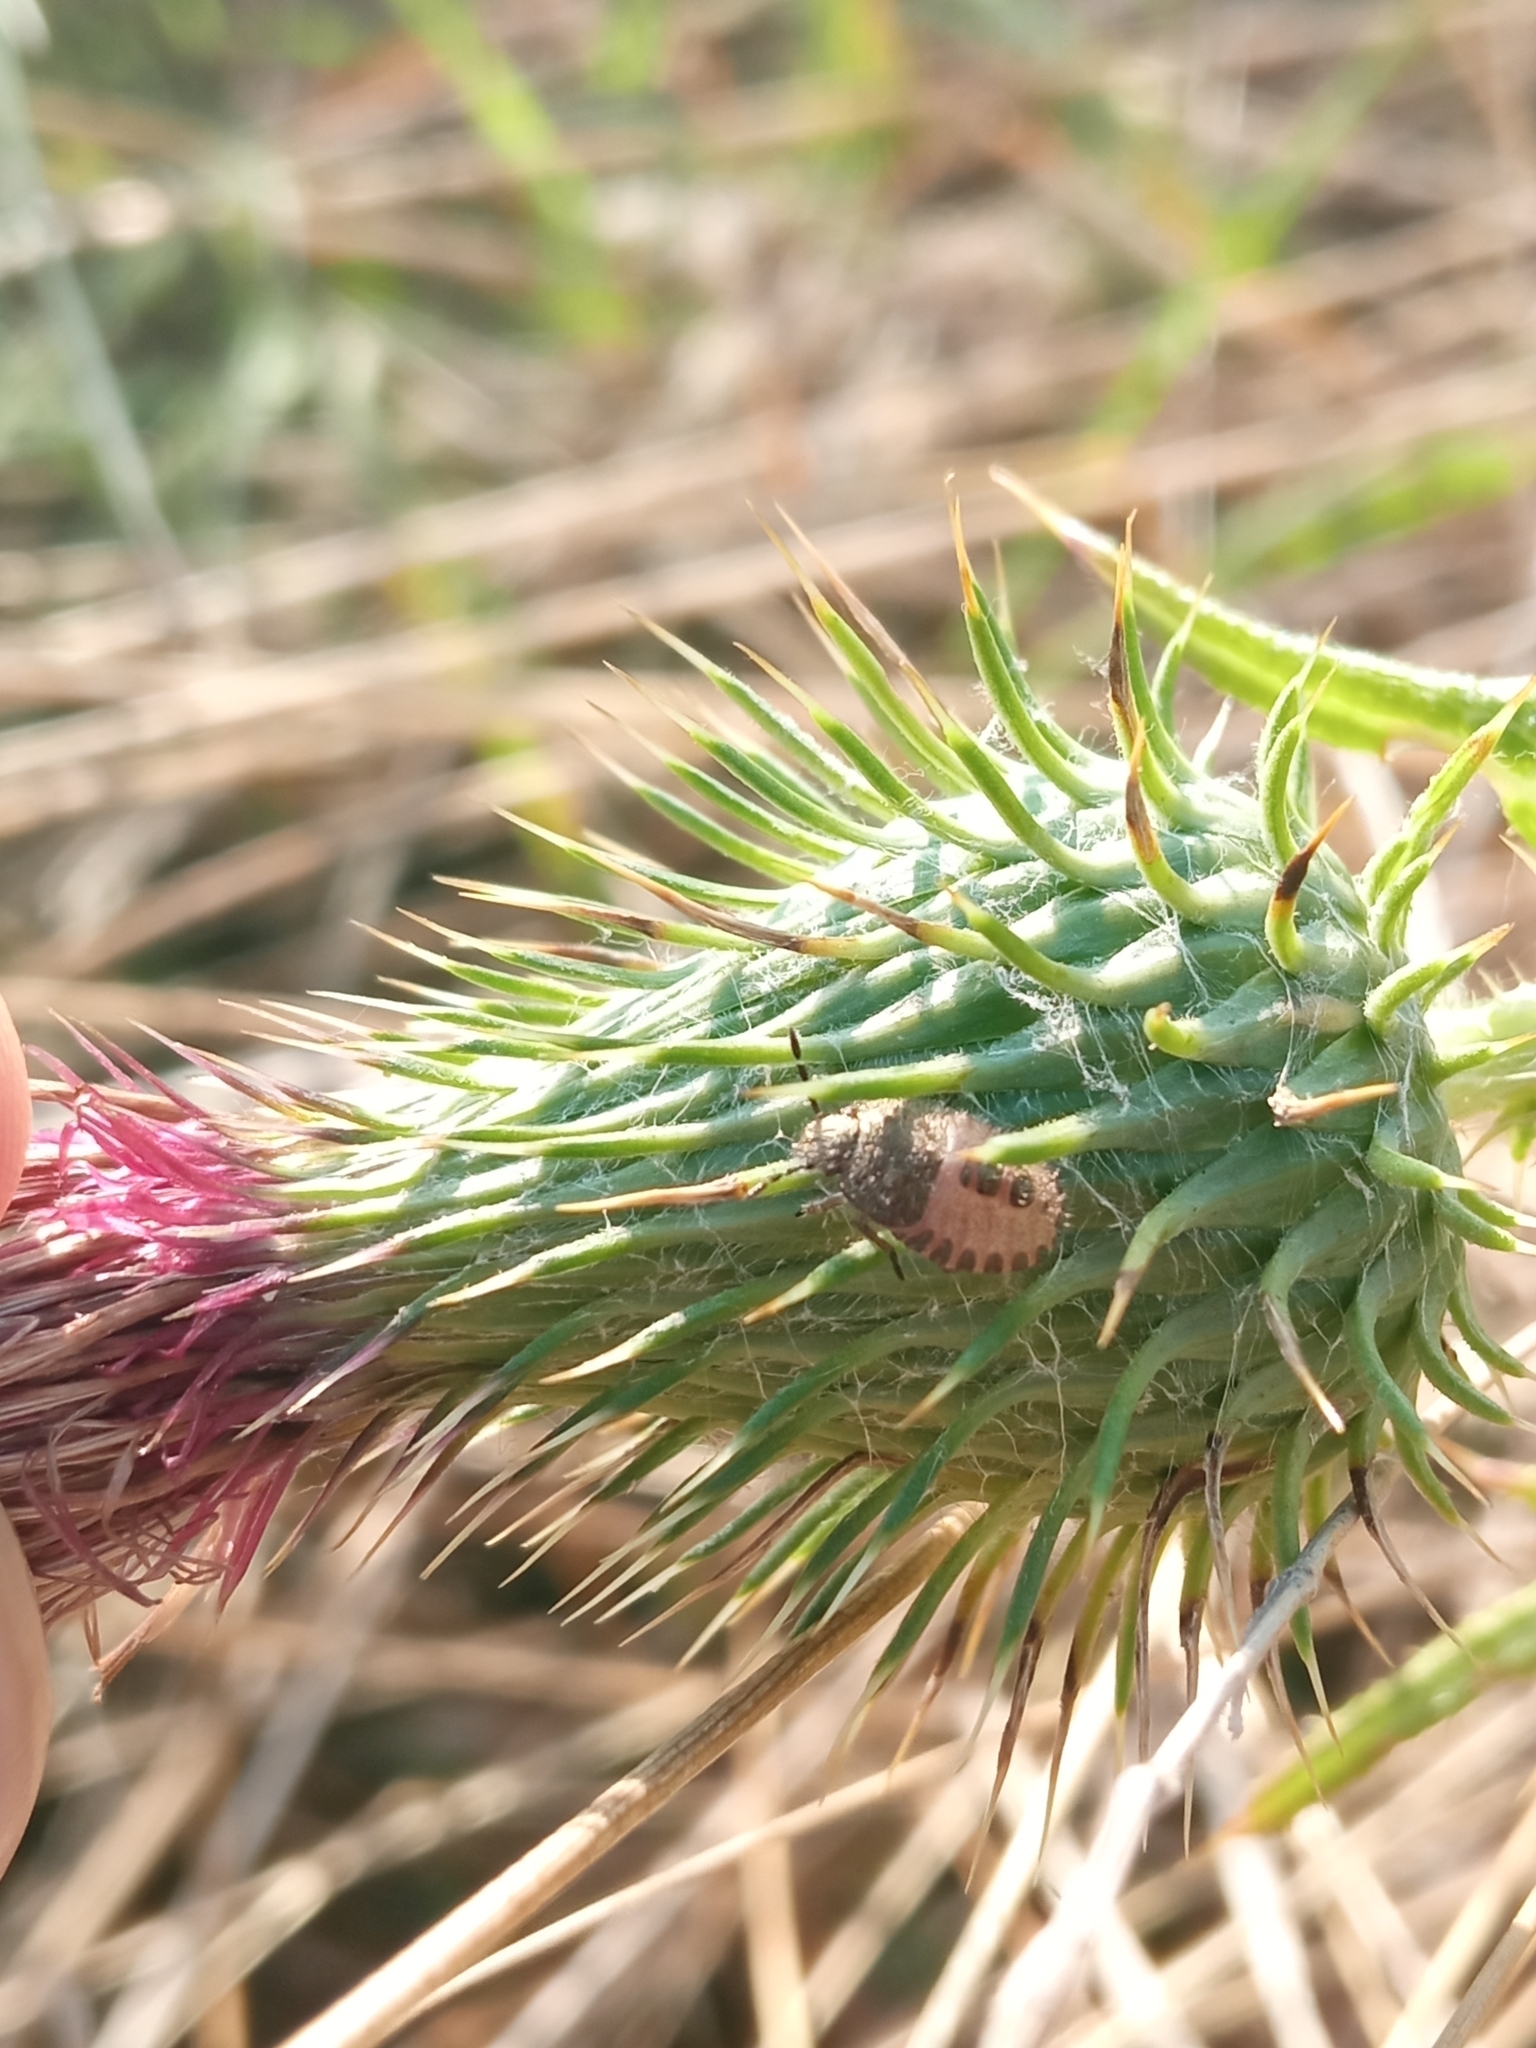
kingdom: Animalia
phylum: Arthropoda
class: Insecta
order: Hemiptera
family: Pentatomidae
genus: Dolycoris
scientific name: Dolycoris baccarum
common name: Sloe bug
